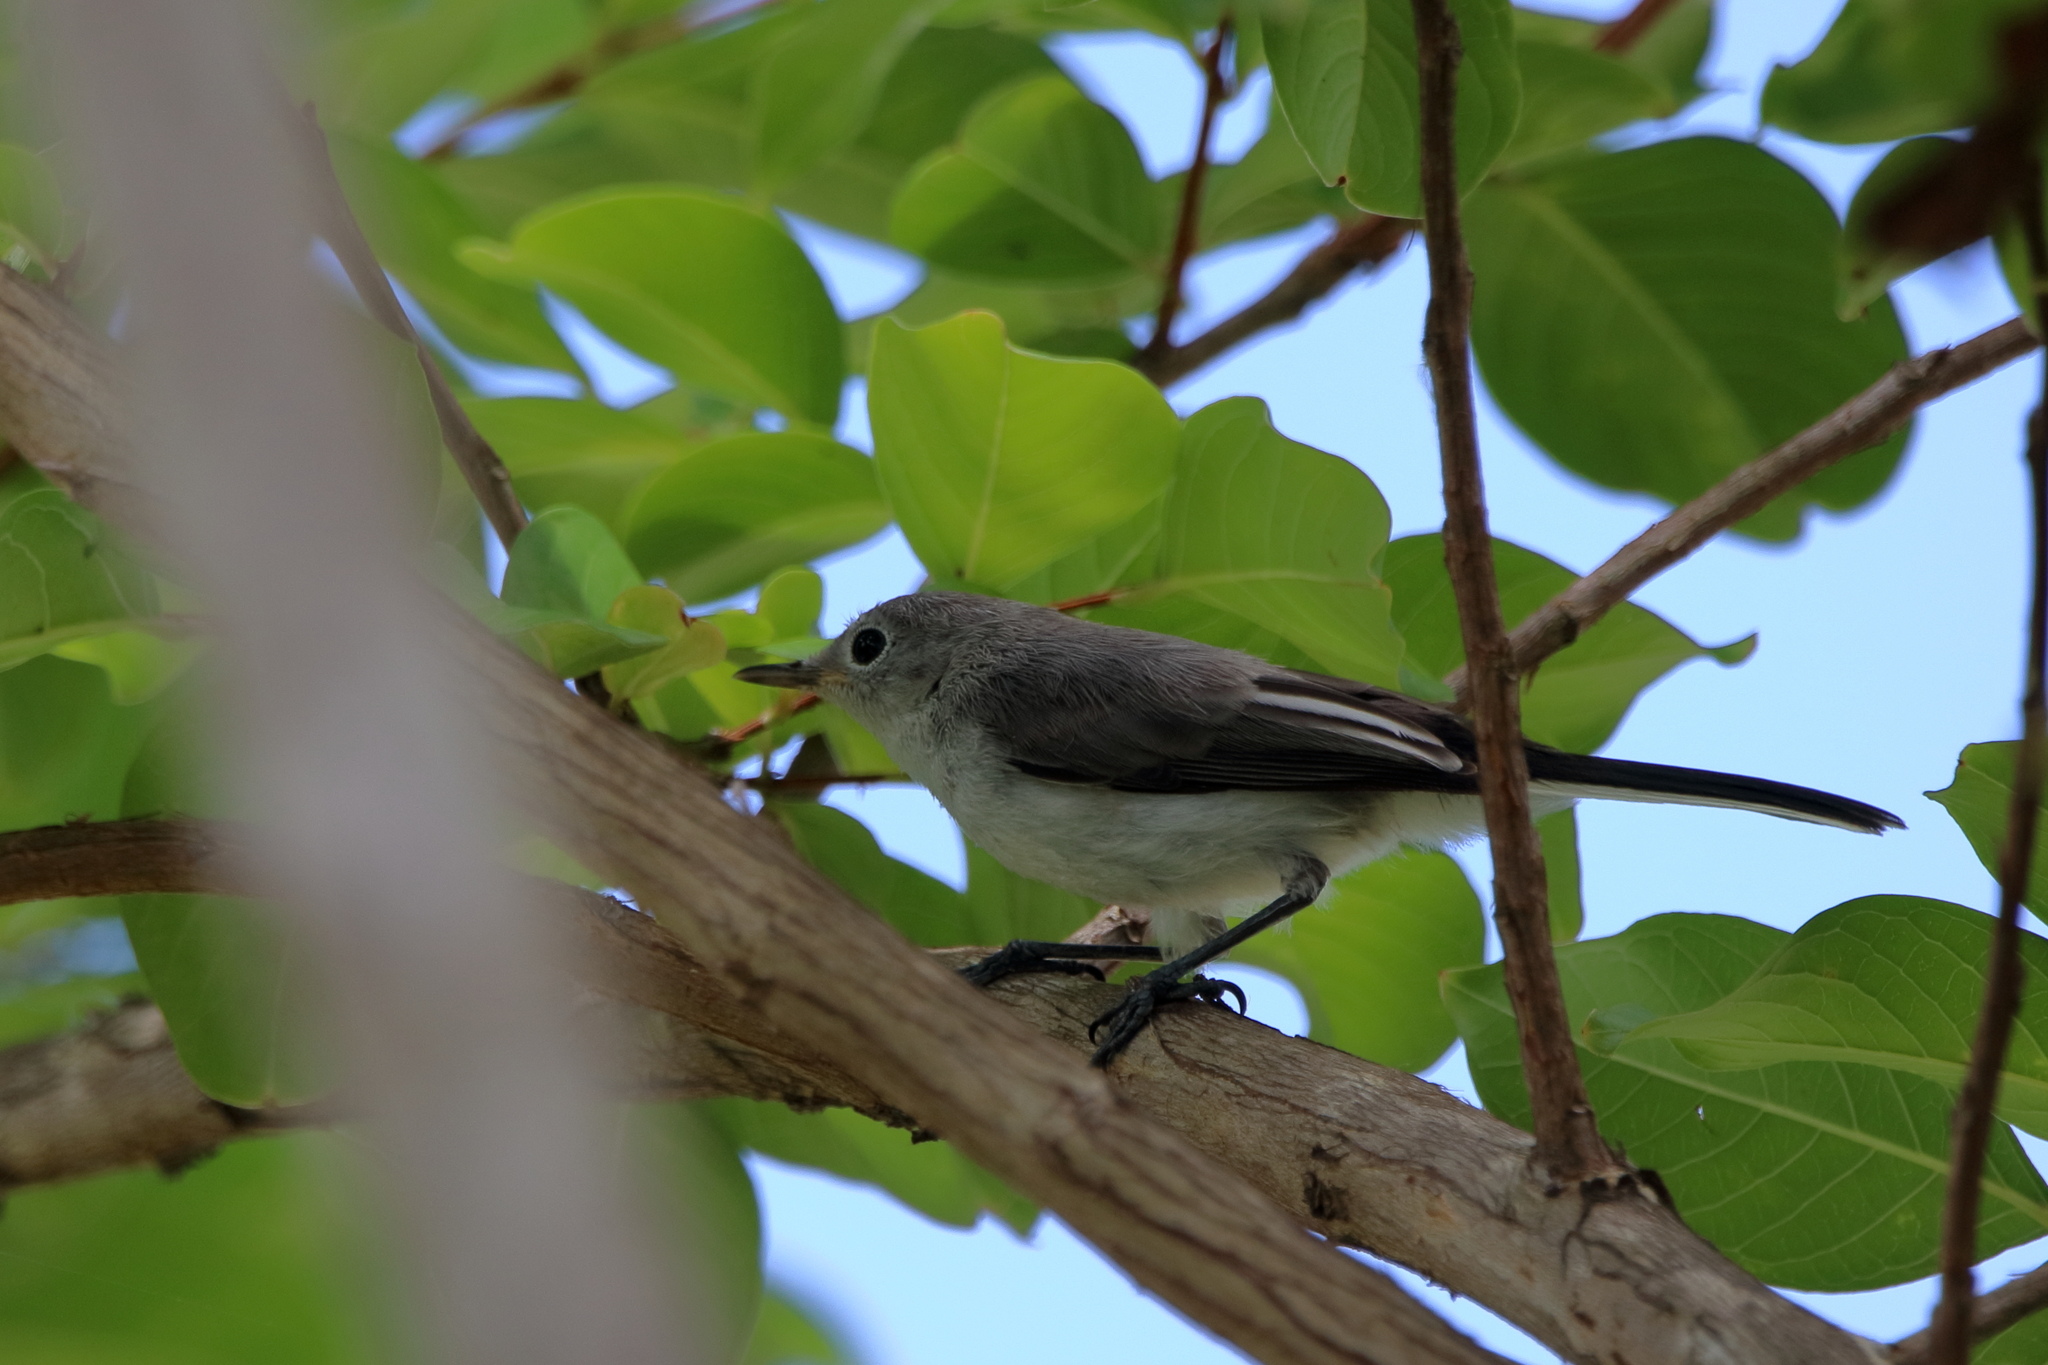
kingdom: Animalia
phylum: Chordata
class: Aves
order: Passeriformes
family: Polioptilidae
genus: Polioptila
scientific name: Polioptila caerulea
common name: Blue-gray gnatcatcher
